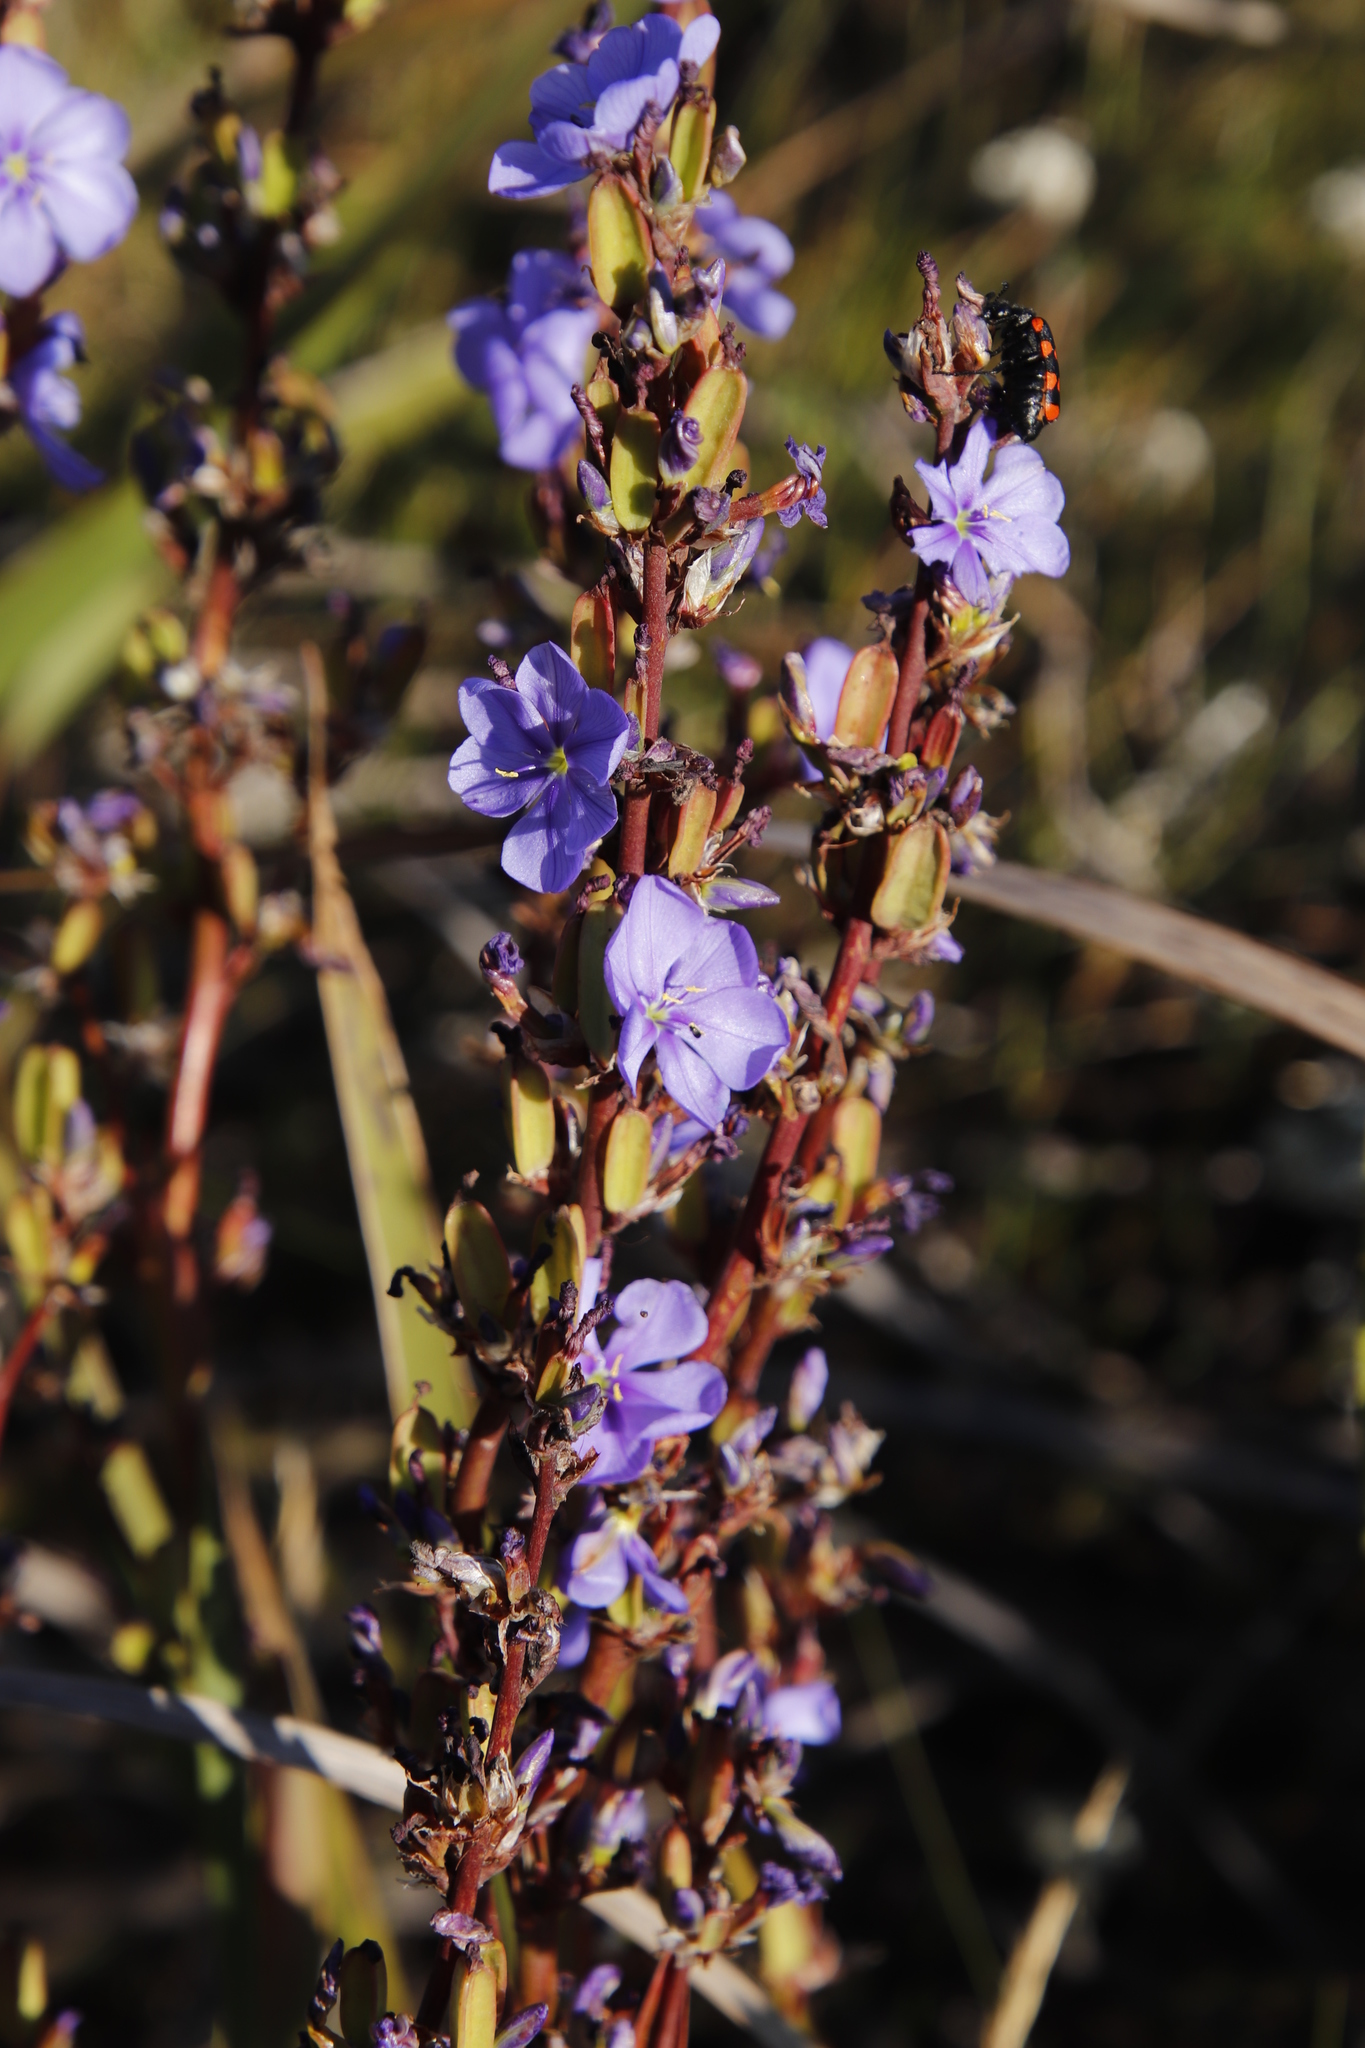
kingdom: Plantae
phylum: Tracheophyta
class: Liliopsida
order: Asparagales
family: Iridaceae
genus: Aristea
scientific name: Aristea bakeri
